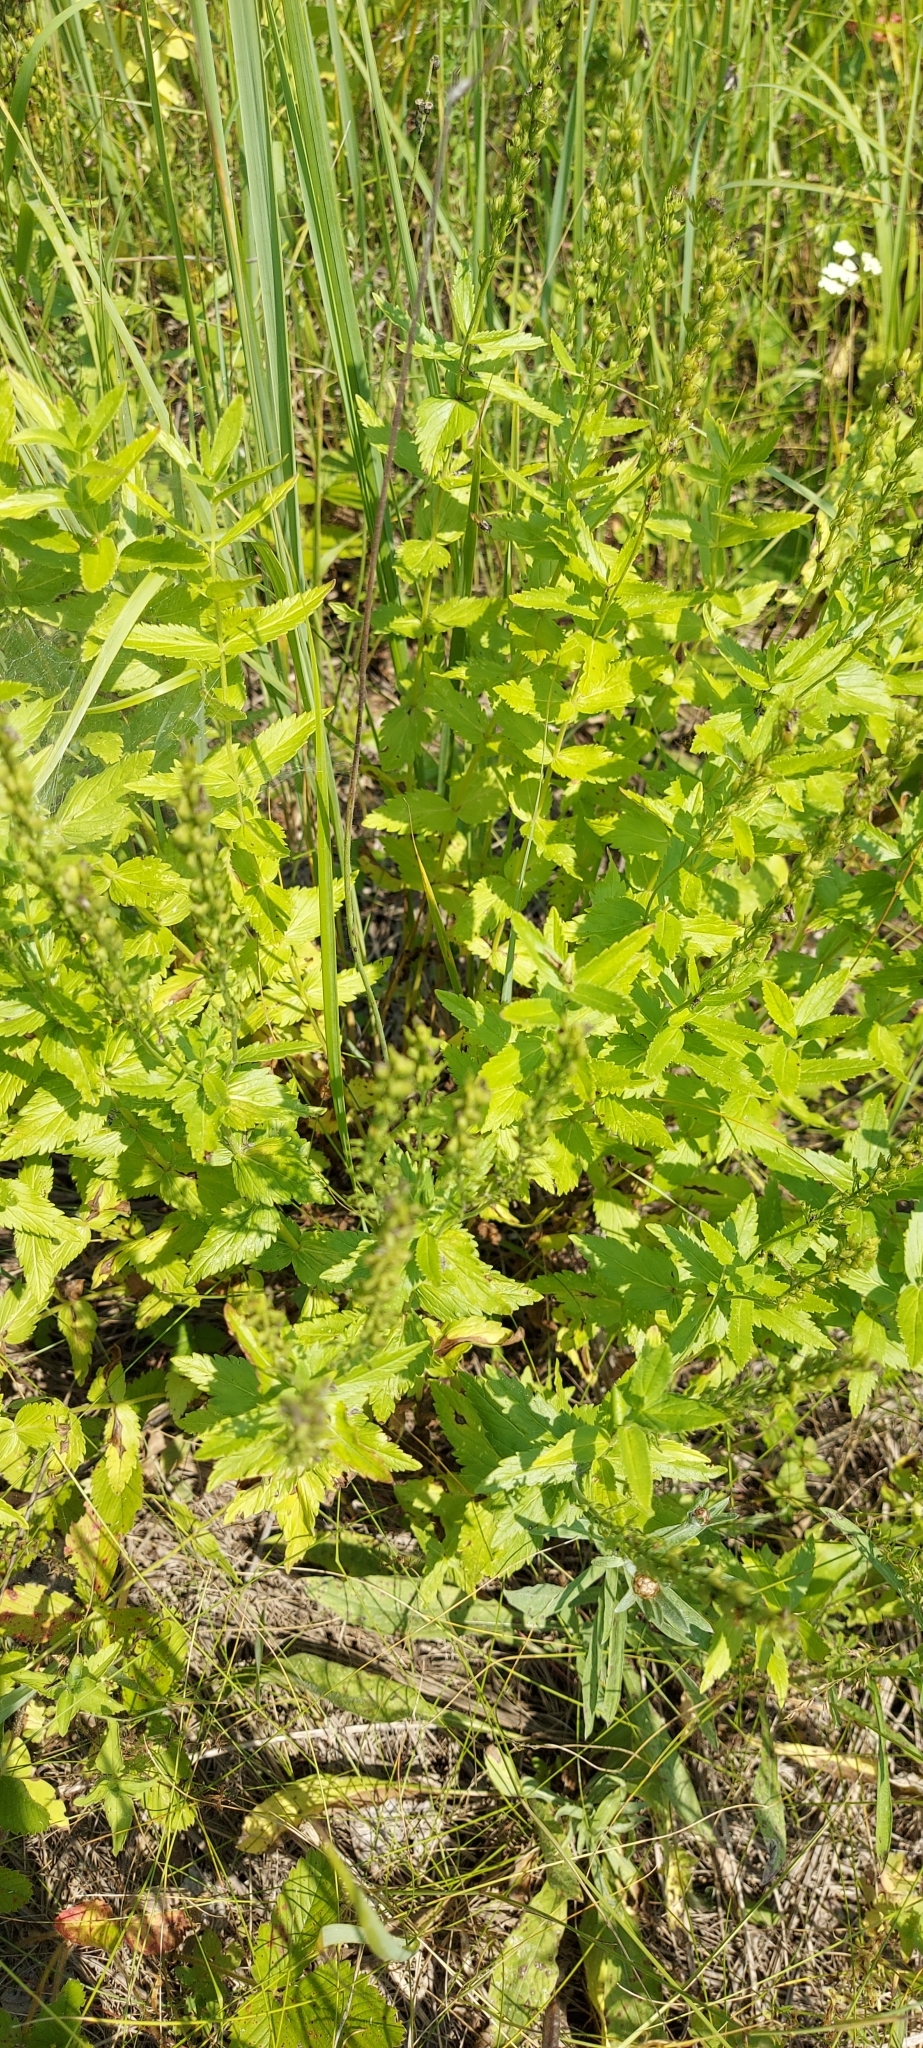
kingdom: Plantae
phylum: Tracheophyta
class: Magnoliopsida
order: Lamiales
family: Plantaginaceae
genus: Veronica
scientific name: Veronica teucrium
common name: Large speedwell
